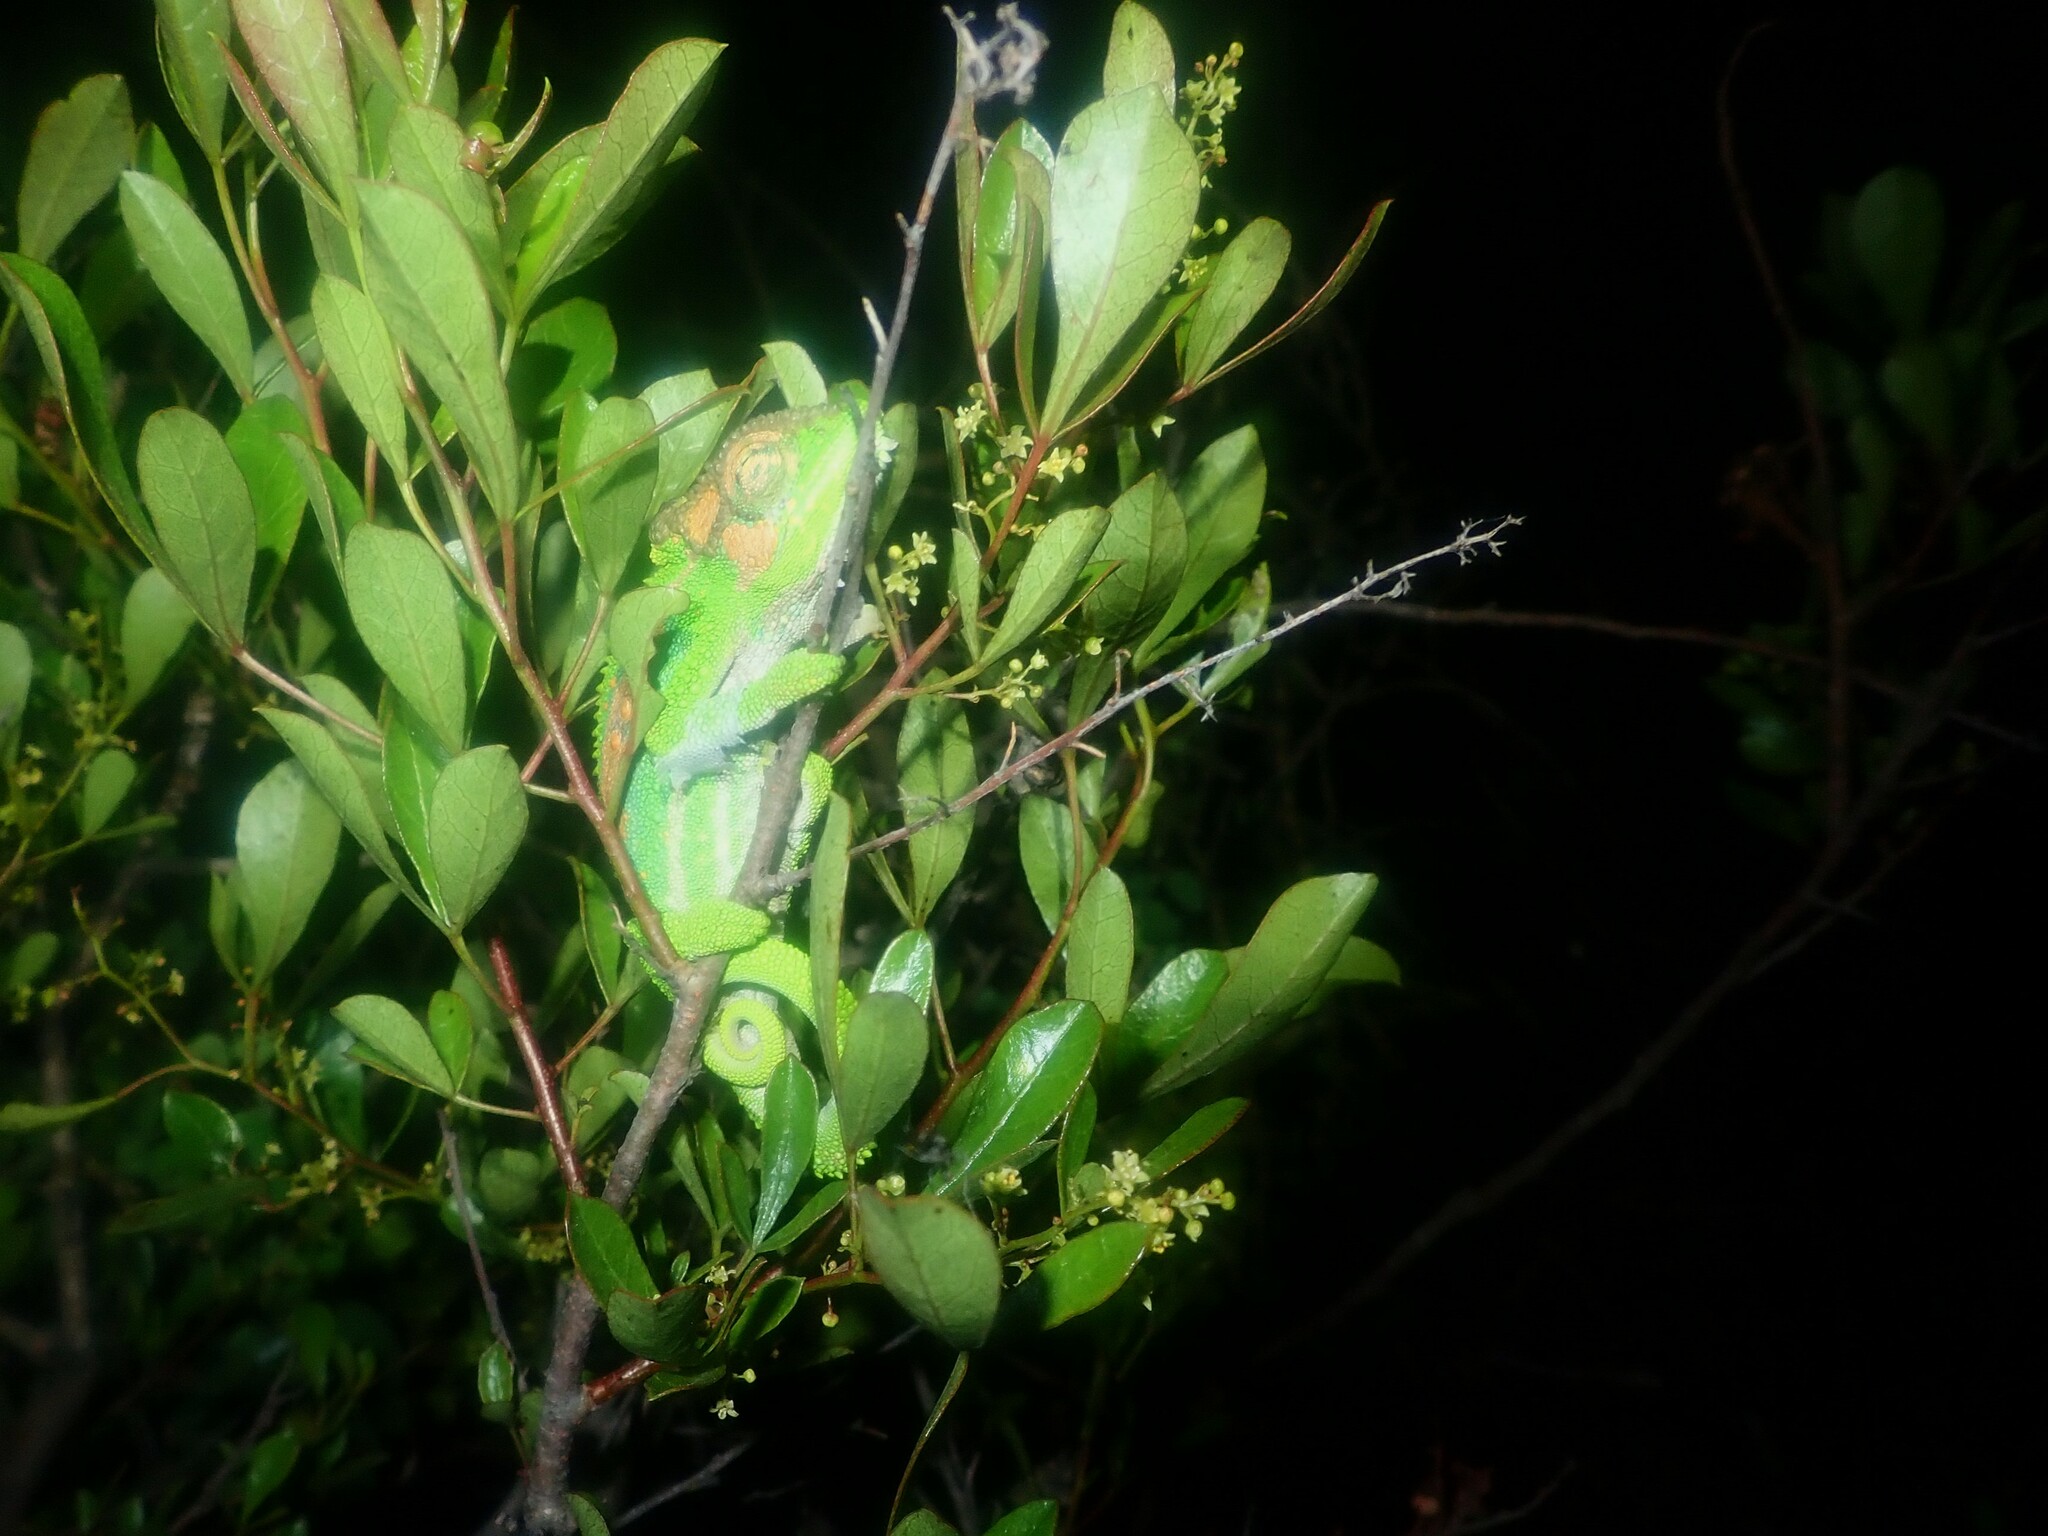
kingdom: Animalia
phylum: Chordata
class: Squamata
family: Chamaeleonidae
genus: Bradypodion
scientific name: Bradypodion pumilum
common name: Cape dwarf chameleon
